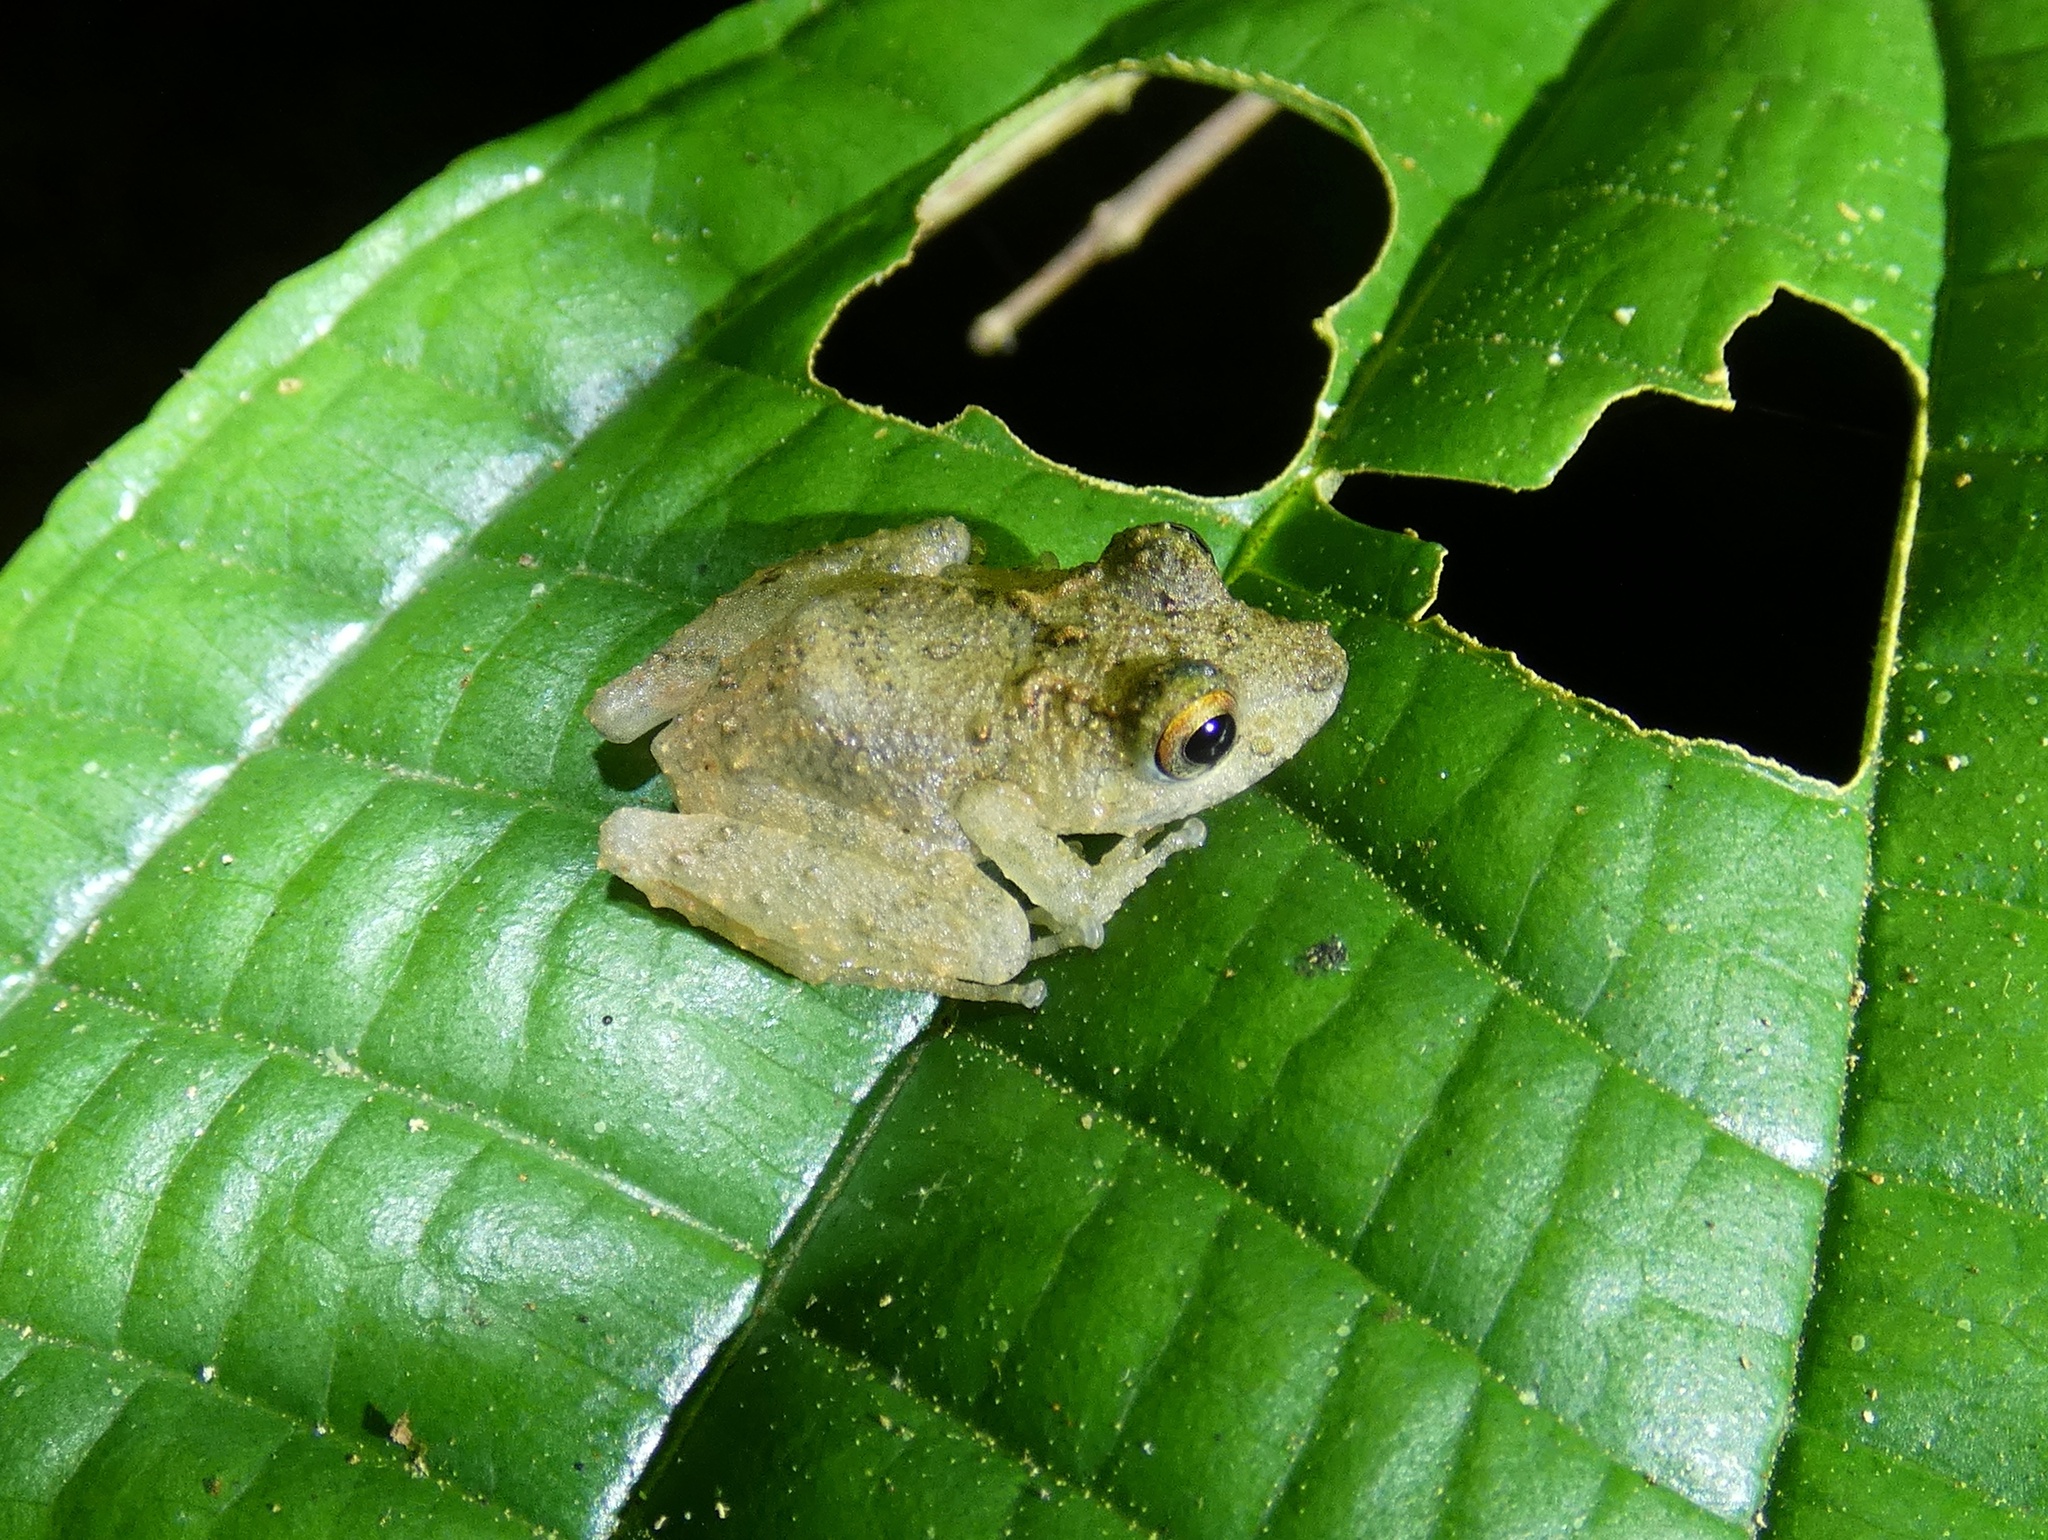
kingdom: Animalia
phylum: Chordata
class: Amphibia
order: Anura
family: Craugastoridae
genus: Pristimantis
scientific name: Pristimantis cerasinus
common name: Limon robber frog
